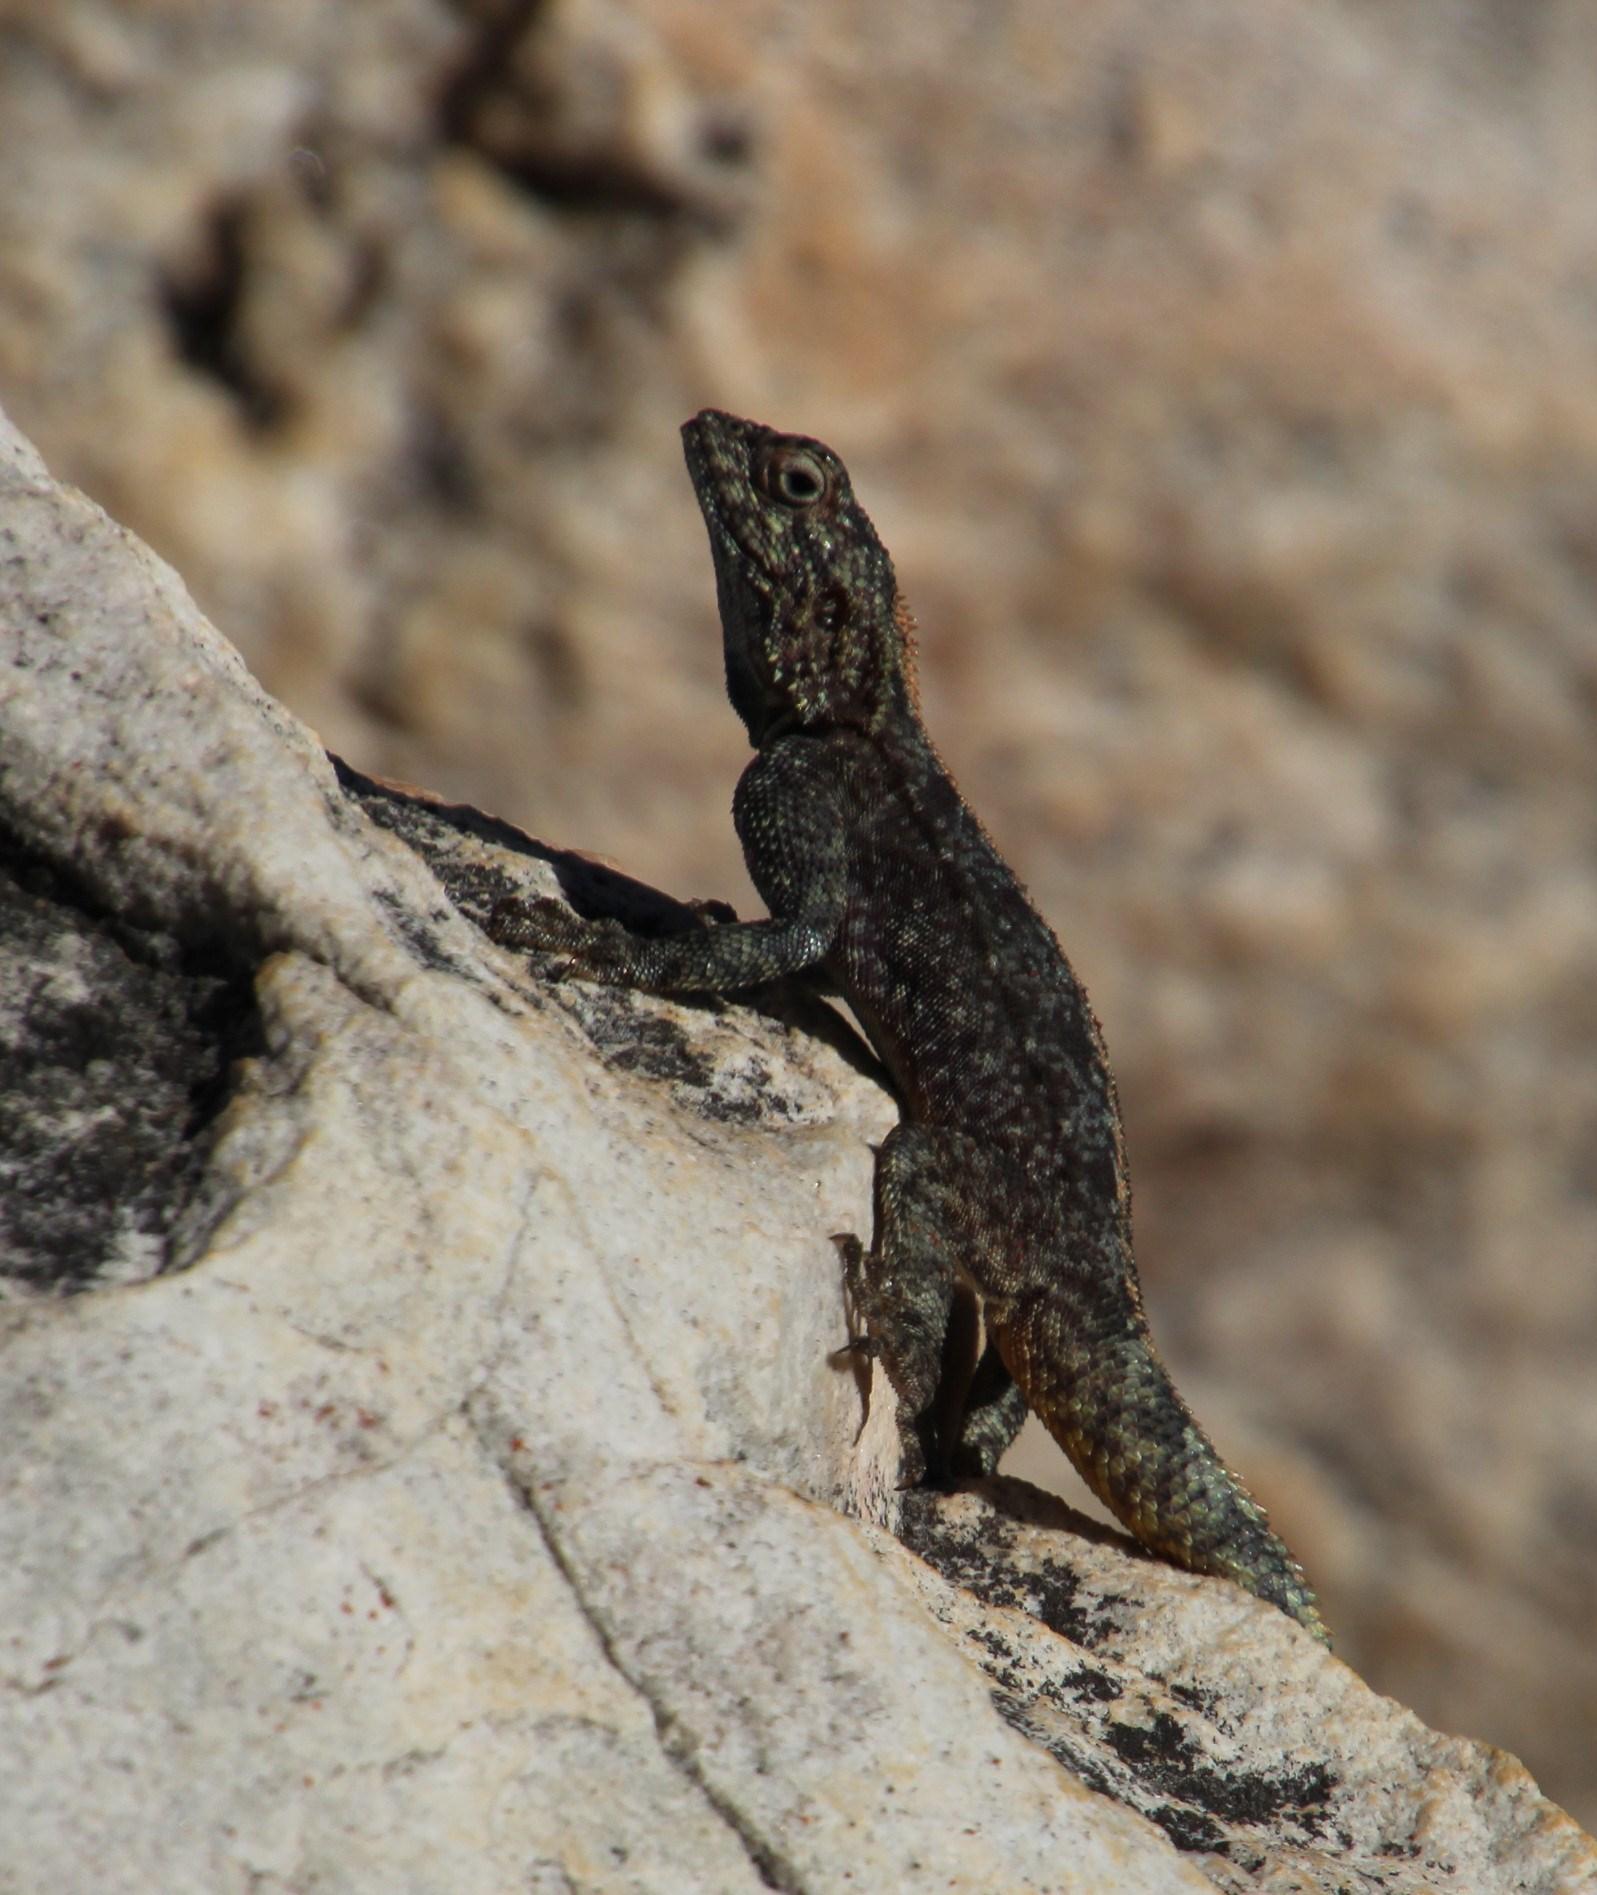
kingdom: Animalia
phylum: Chordata
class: Squamata
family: Agamidae
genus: Agama
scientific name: Agama atra
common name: Southern african rock agama
